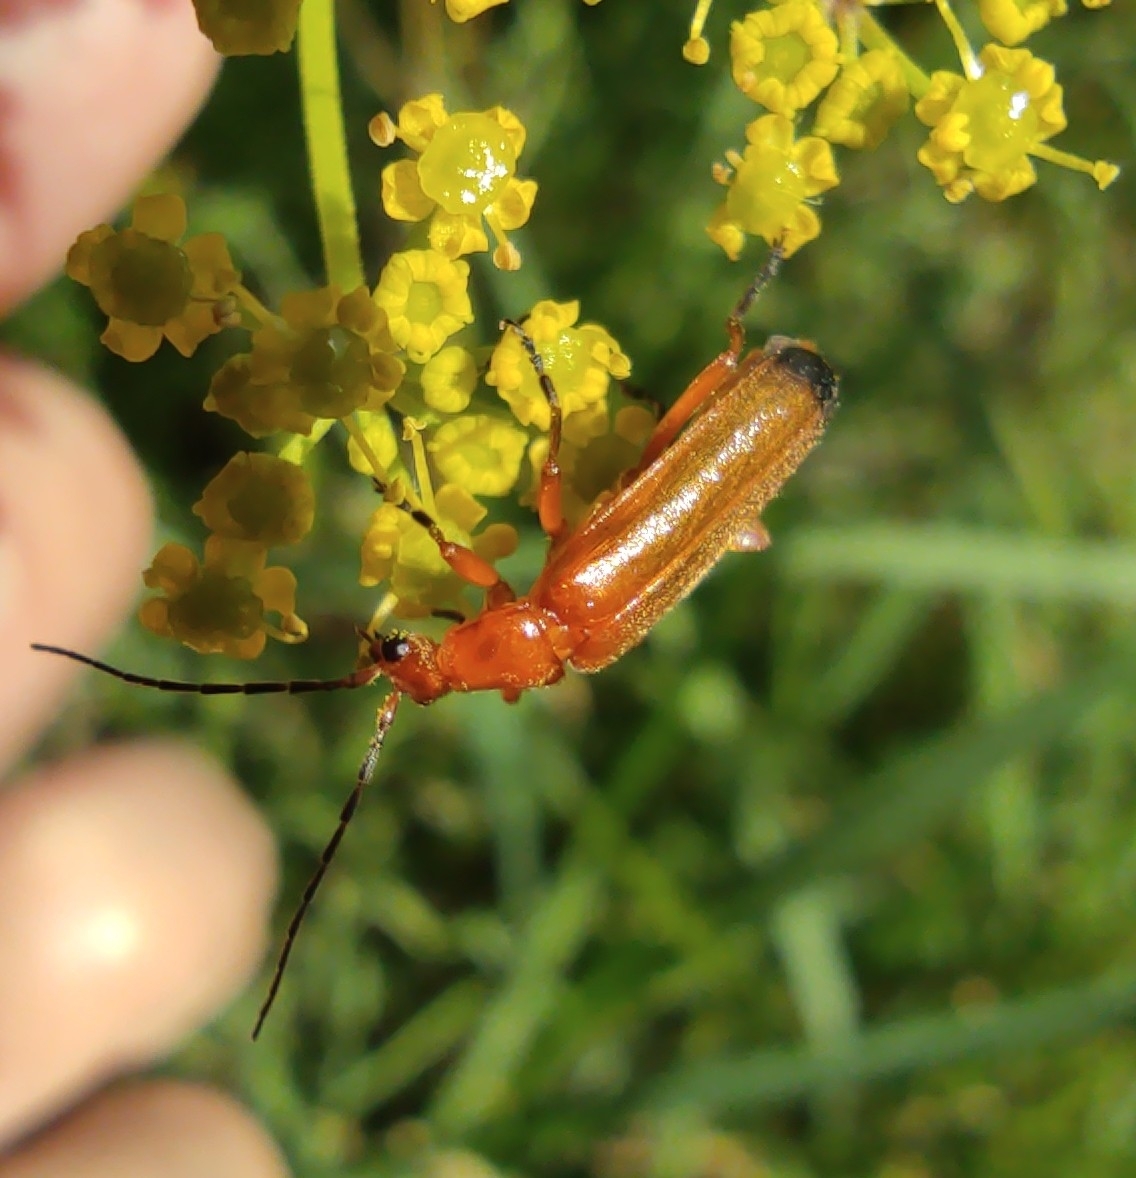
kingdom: Animalia
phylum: Arthropoda
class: Insecta
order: Coleoptera
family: Cantharidae
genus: Rhagonycha
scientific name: Rhagonycha fulva
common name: Common red soldier beetle
